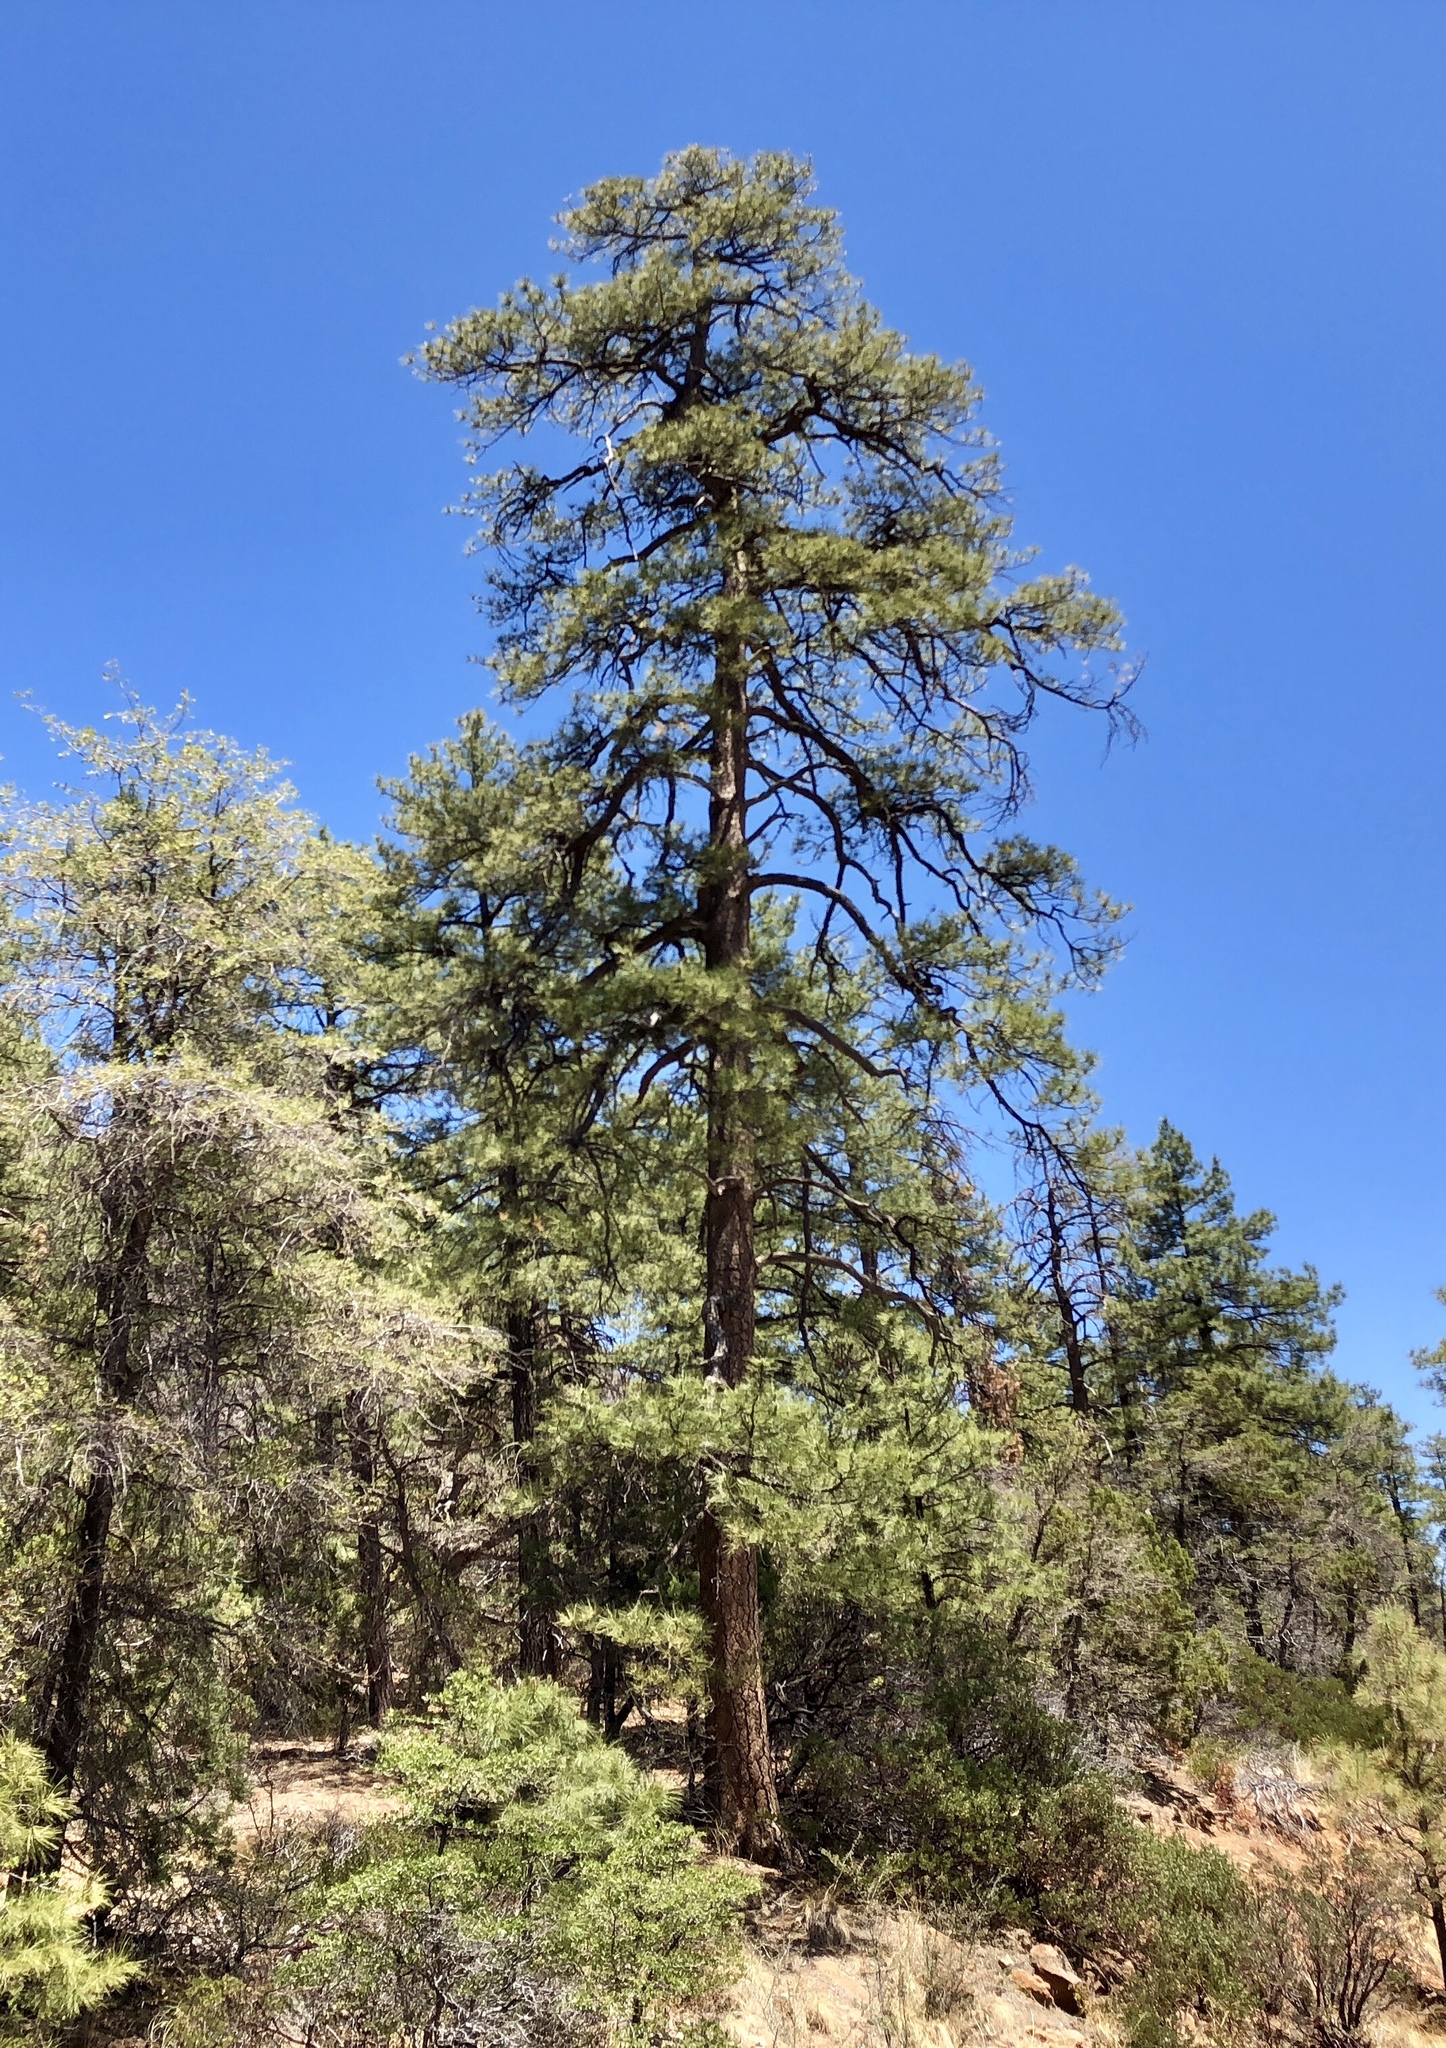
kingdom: Plantae
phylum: Tracheophyta
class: Pinopsida
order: Pinales
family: Pinaceae
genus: Pinus
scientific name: Pinus ponderosa
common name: Western yellow-pine
